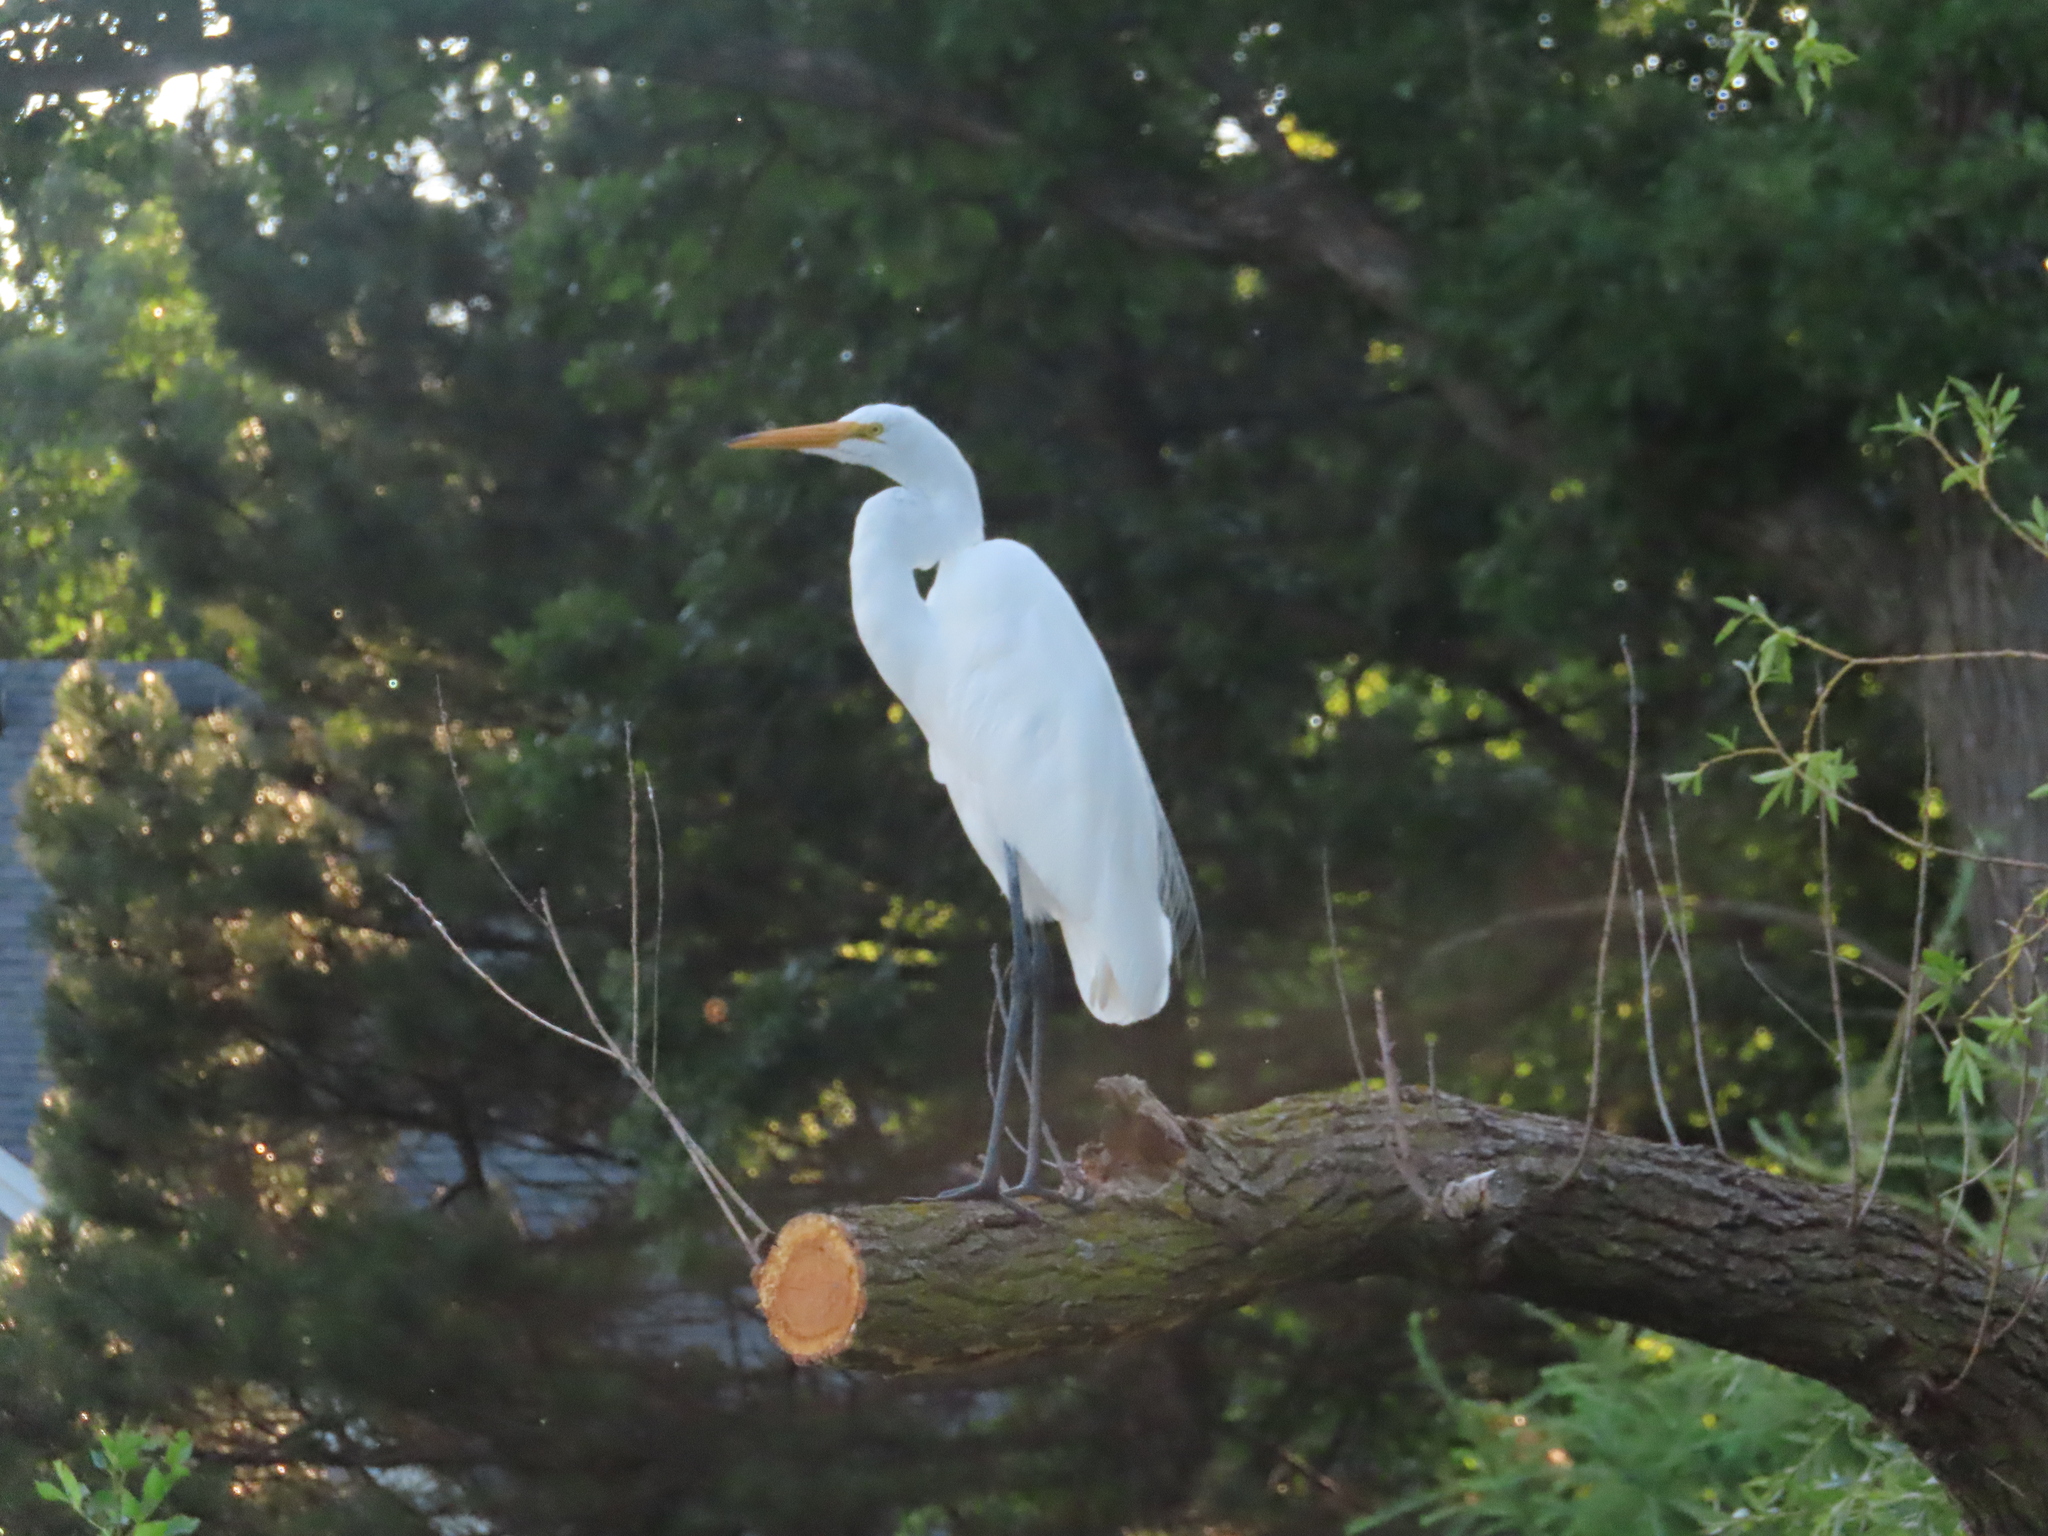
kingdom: Animalia
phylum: Chordata
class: Aves
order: Pelecaniformes
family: Ardeidae
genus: Ardea
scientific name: Ardea alba
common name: Great egret
